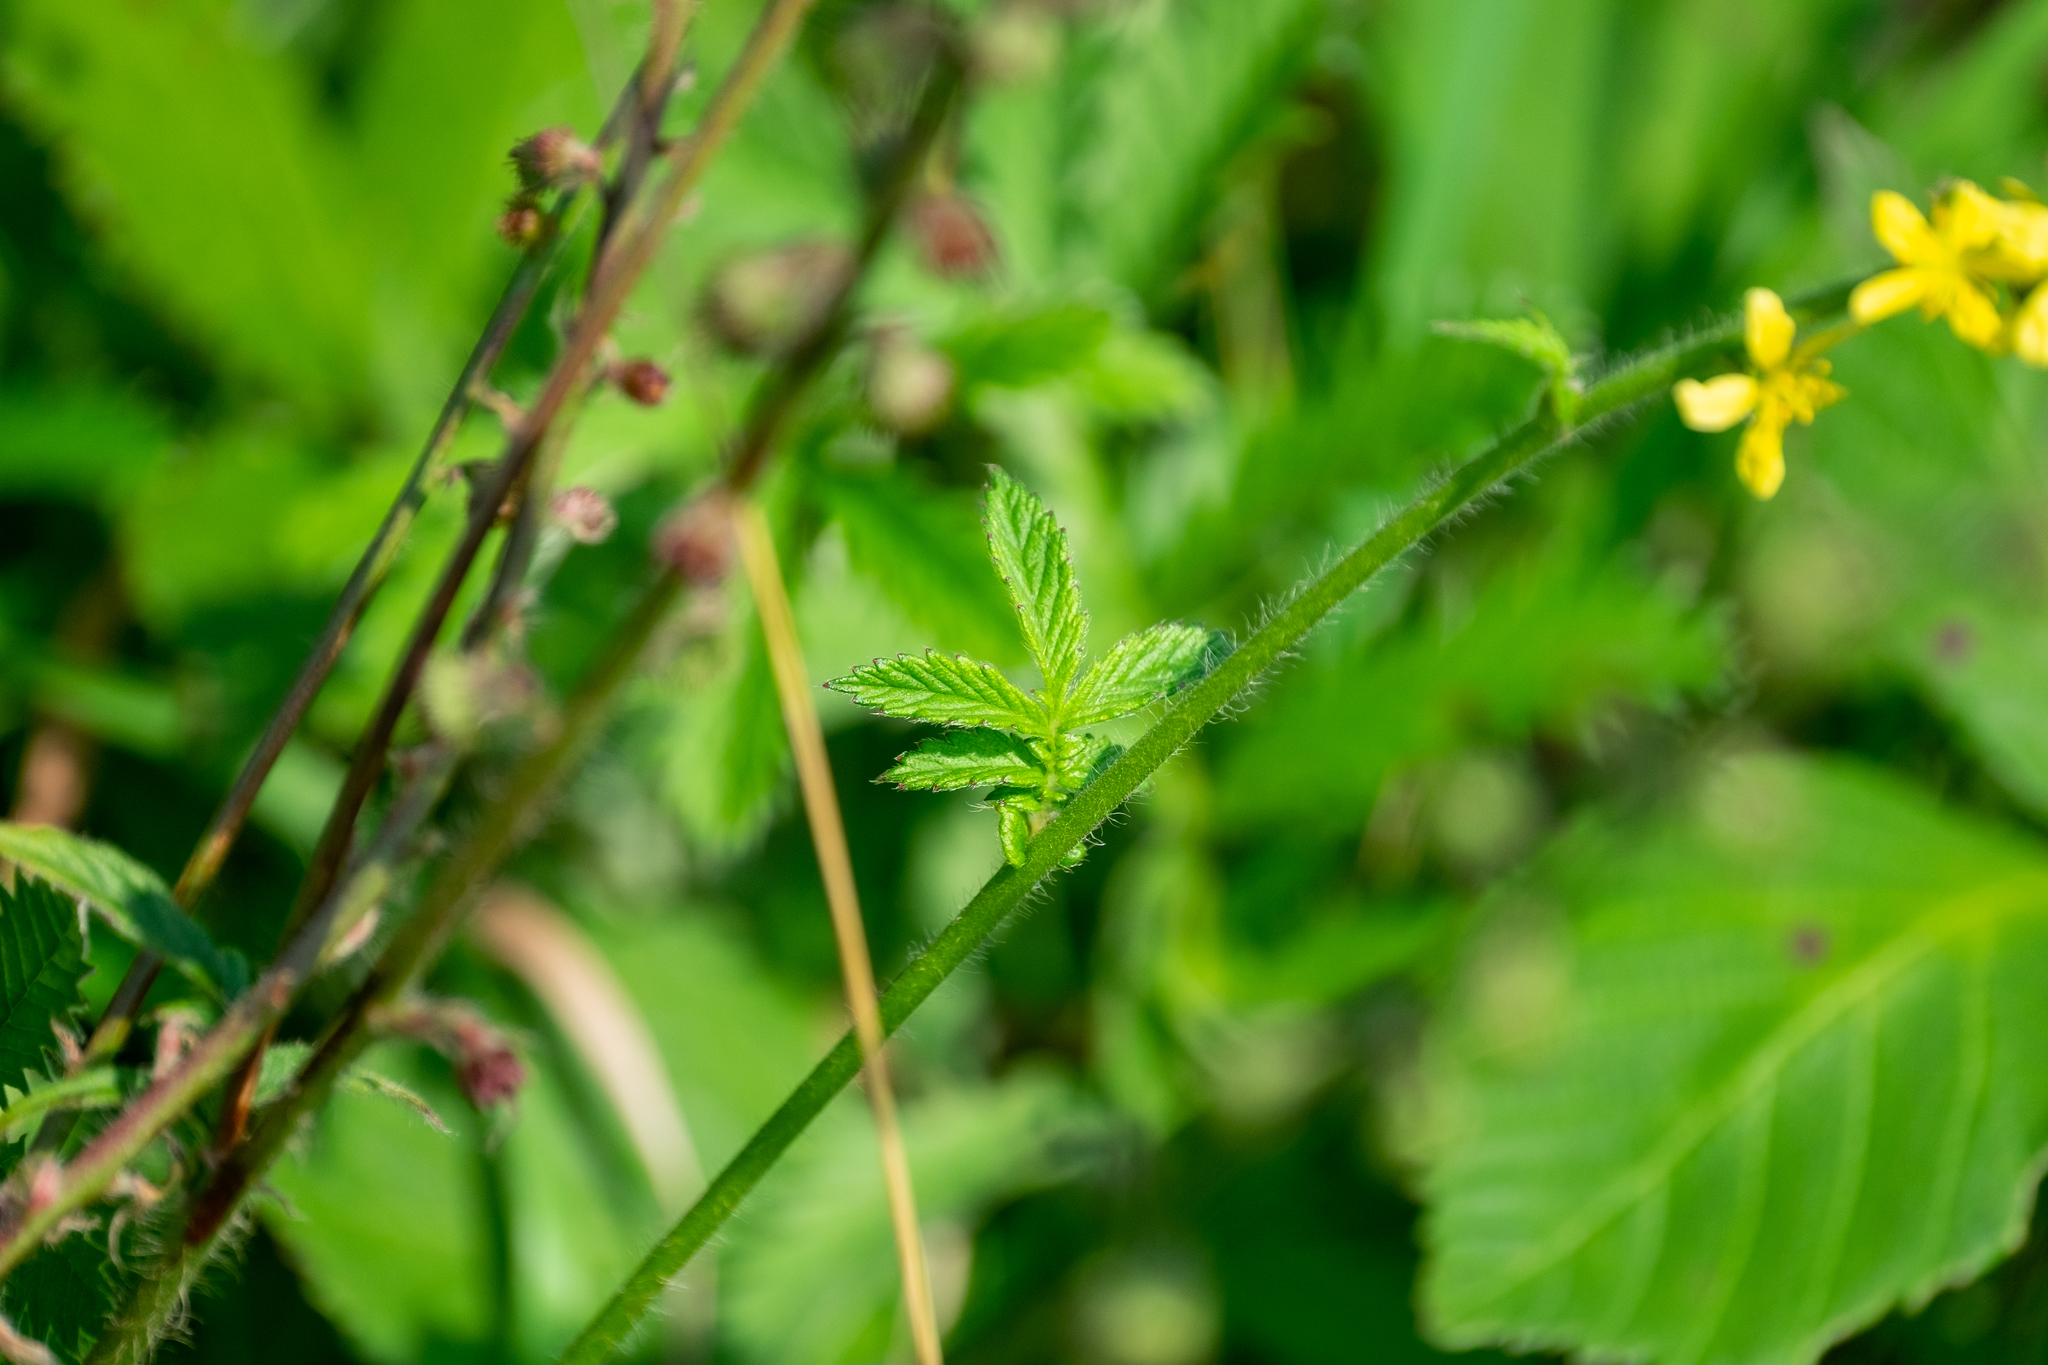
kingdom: Plantae
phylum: Tracheophyta
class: Magnoliopsida
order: Rosales
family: Rosaceae
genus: Agrimonia
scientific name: Agrimonia eupatoria
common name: Agrimony
